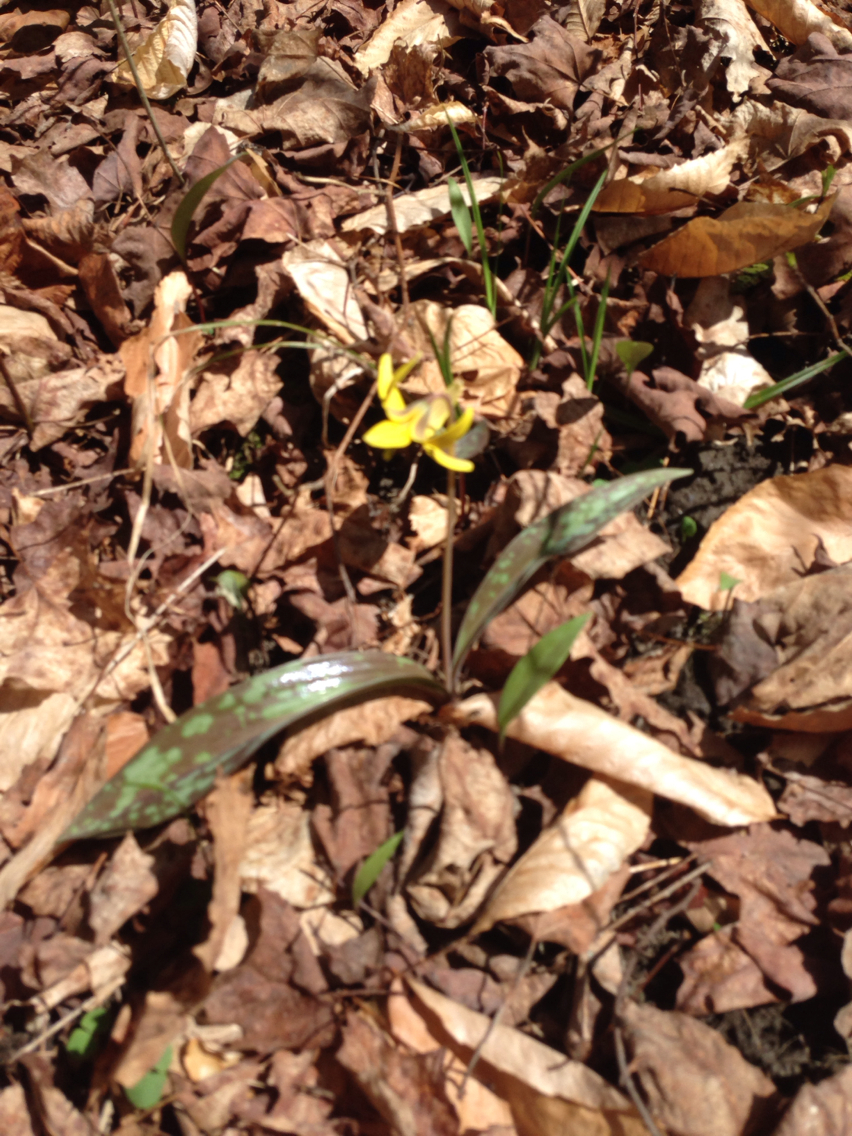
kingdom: Plantae
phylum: Tracheophyta
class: Liliopsida
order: Liliales
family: Liliaceae
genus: Erythronium
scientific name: Erythronium americanum
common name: Yellow adder's-tongue
